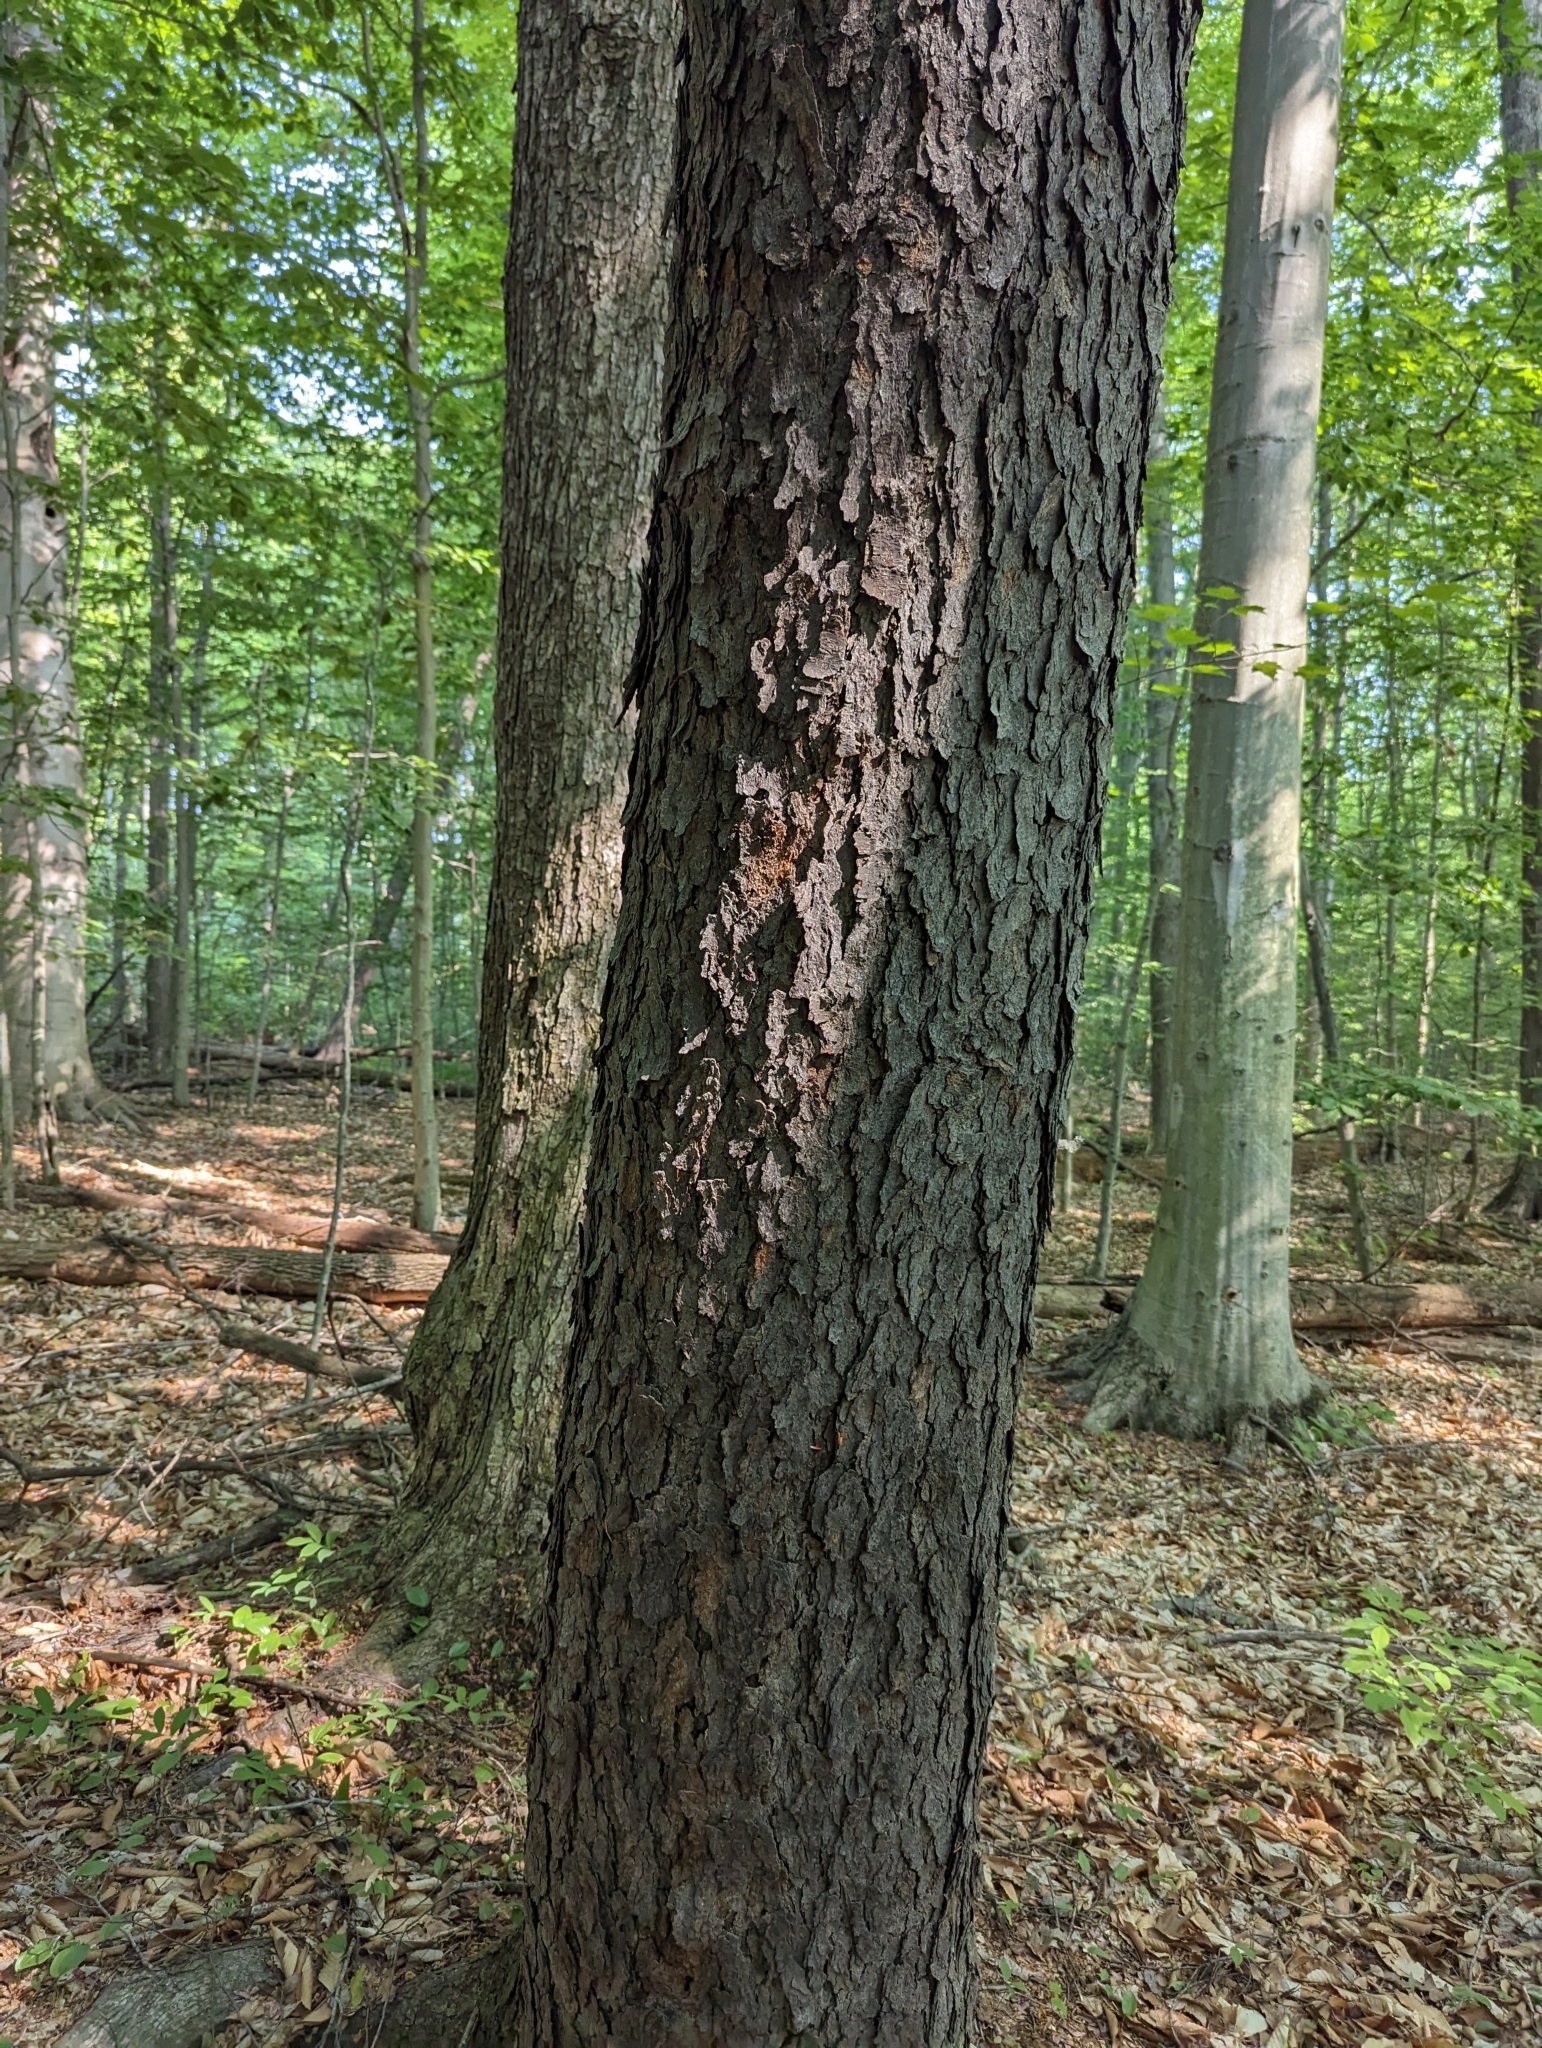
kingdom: Plantae
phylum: Tracheophyta
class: Magnoliopsida
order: Rosales
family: Rosaceae
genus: Prunus
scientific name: Prunus serotina
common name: Black cherry
